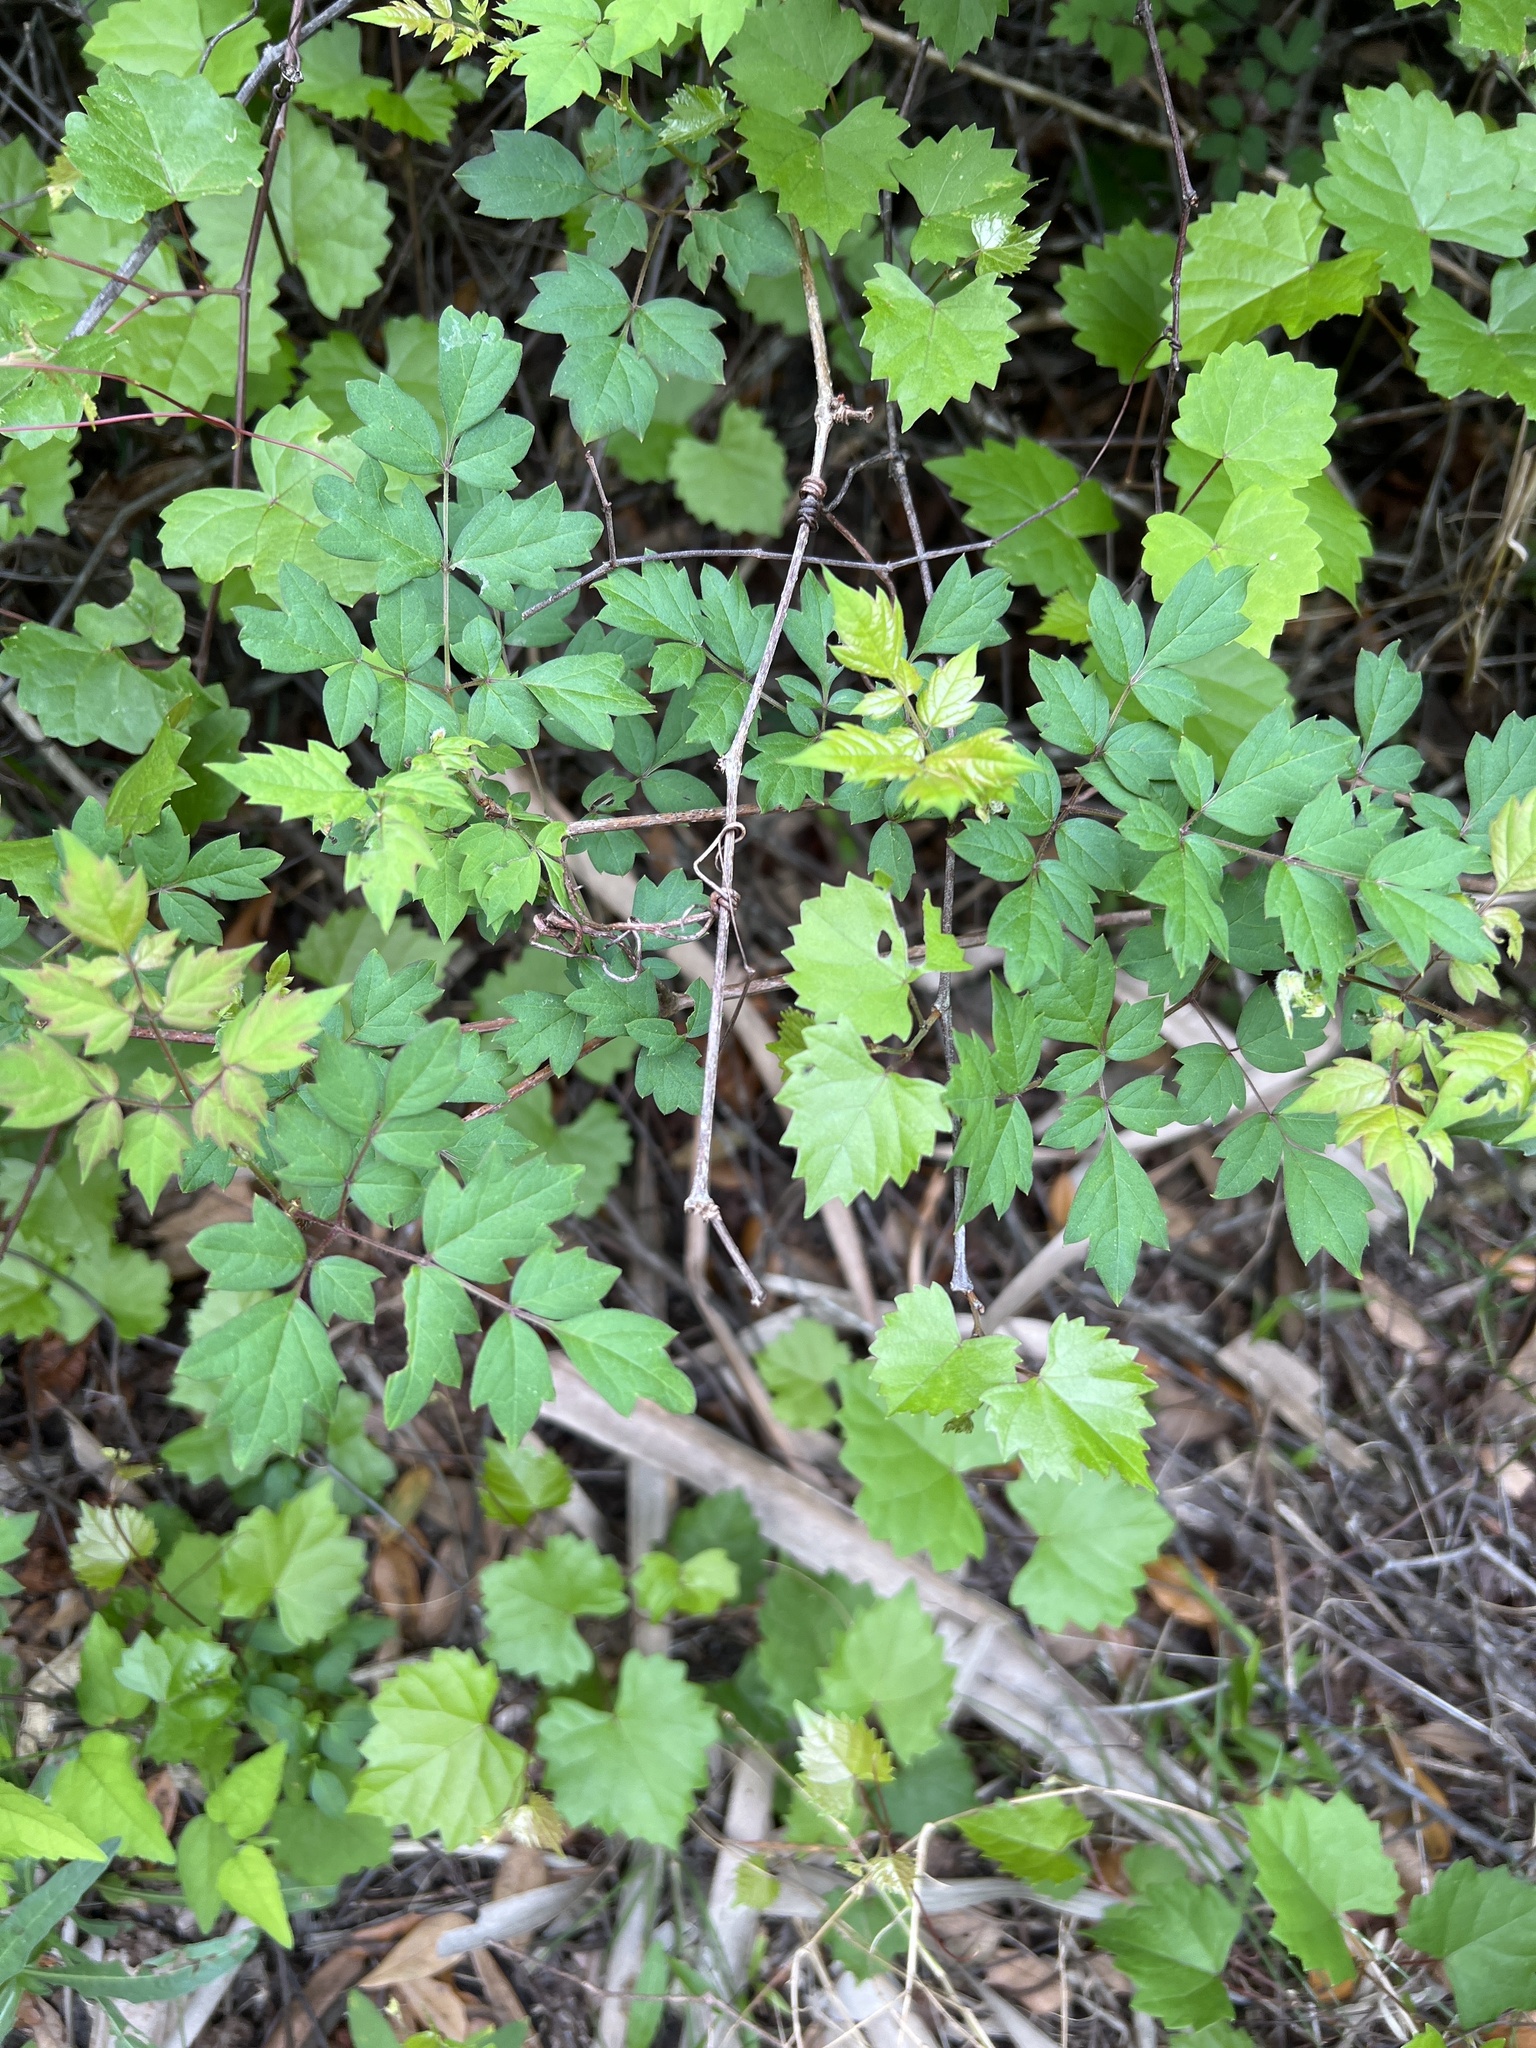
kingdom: Plantae
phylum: Tracheophyta
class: Magnoliopsida
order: Vitales
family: Vitaceae
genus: Nekemias
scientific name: Nekemias arborea
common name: Peppervine
